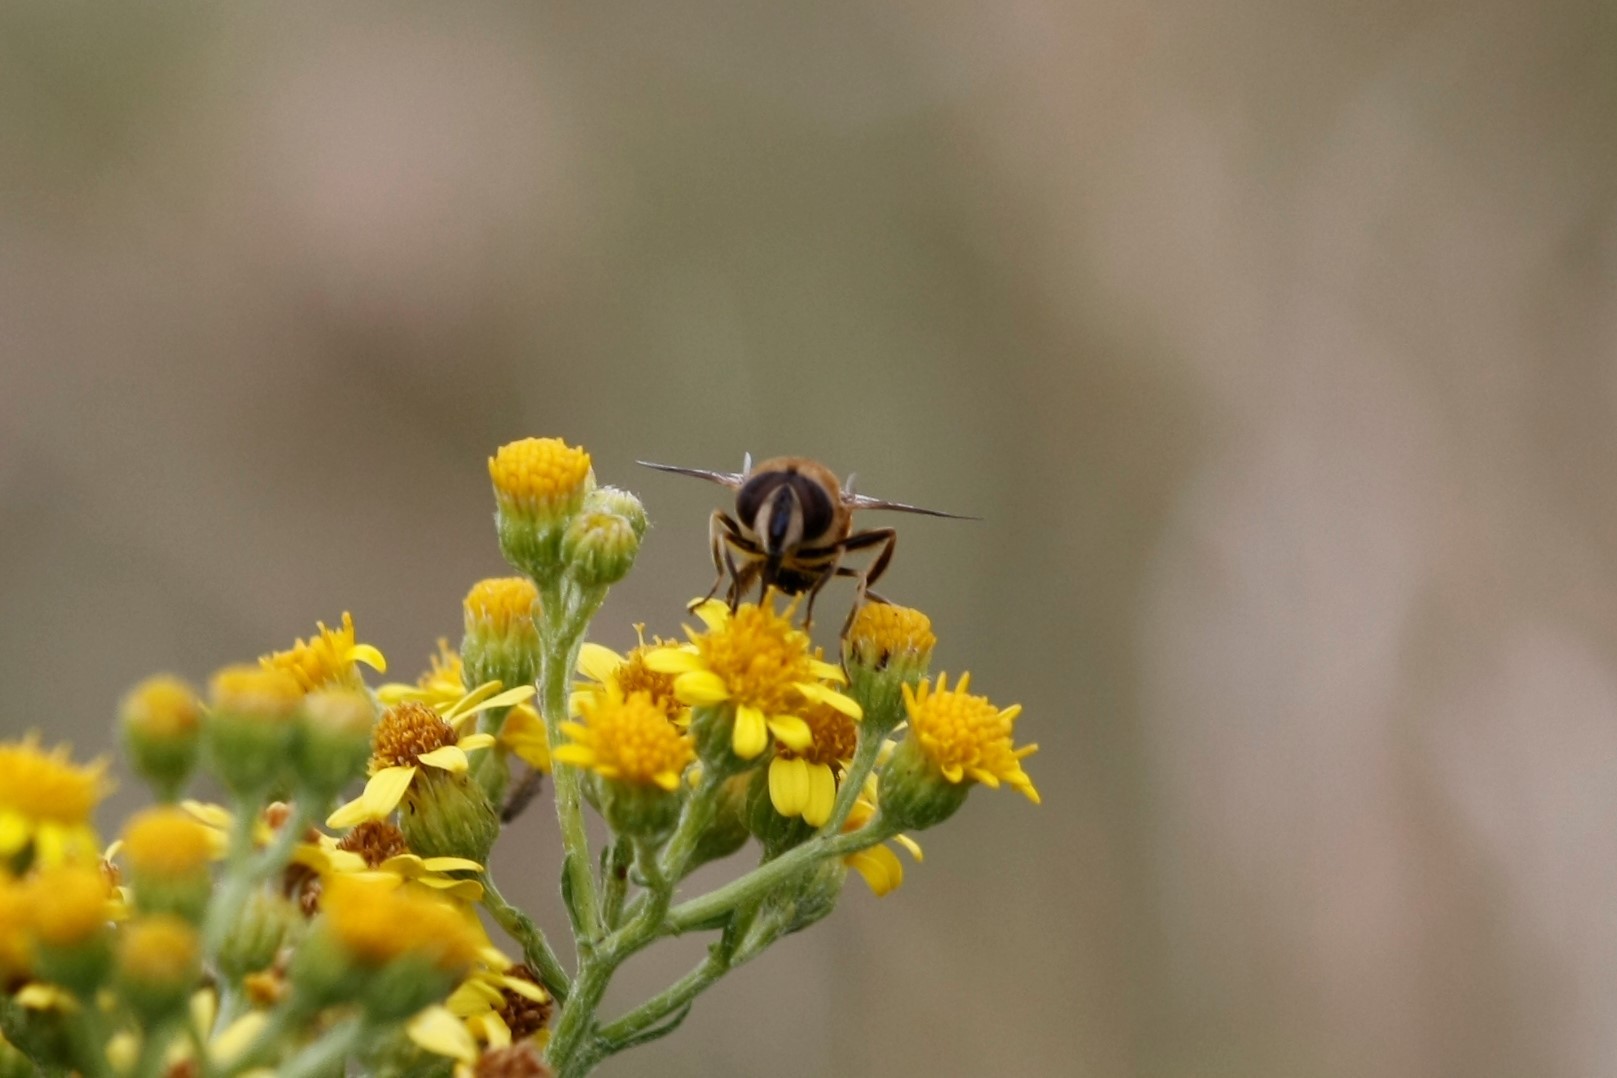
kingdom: Animalia
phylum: Arthropoda
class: Insecta
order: Diptera
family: Syrphidae
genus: Eristalis
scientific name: Eristalis tenax
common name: Drone fly
